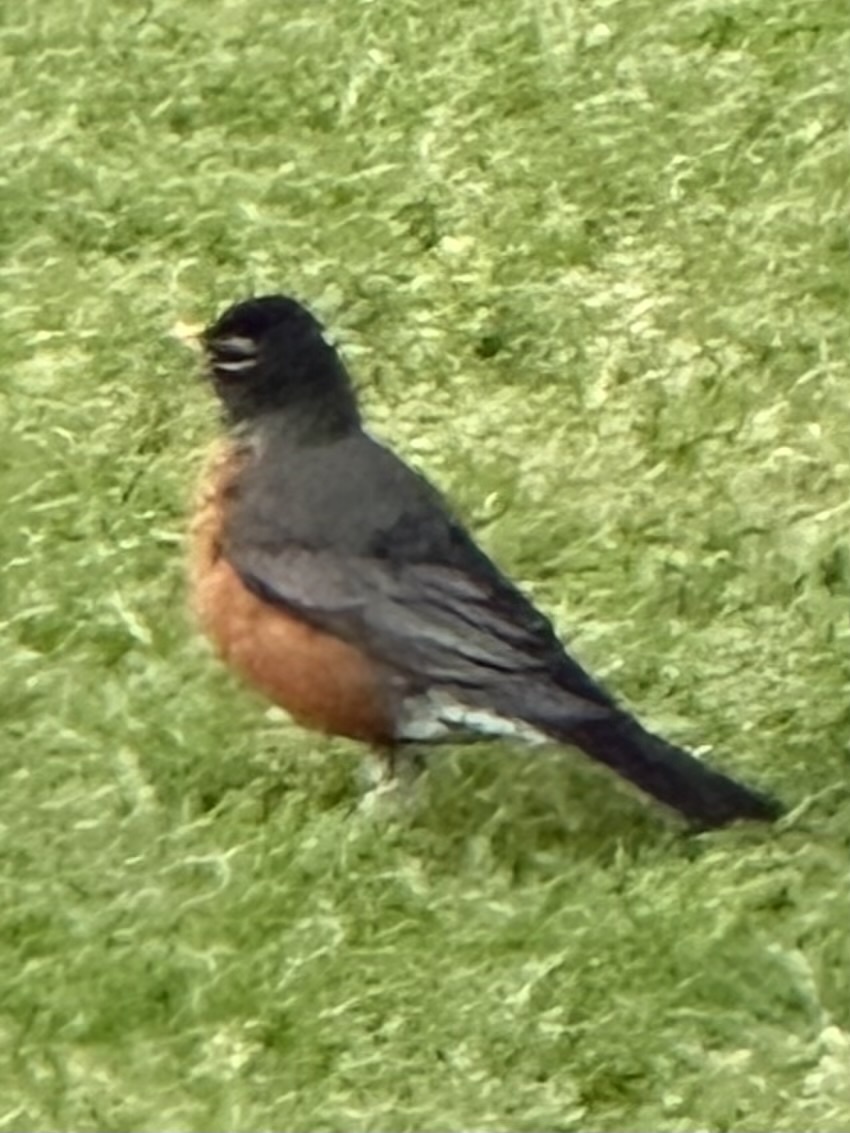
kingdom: Animalia
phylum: Chordata
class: Aves
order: Passeriformes
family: Turdidae
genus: Turdus
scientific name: Turdus migratorius
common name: American robin
